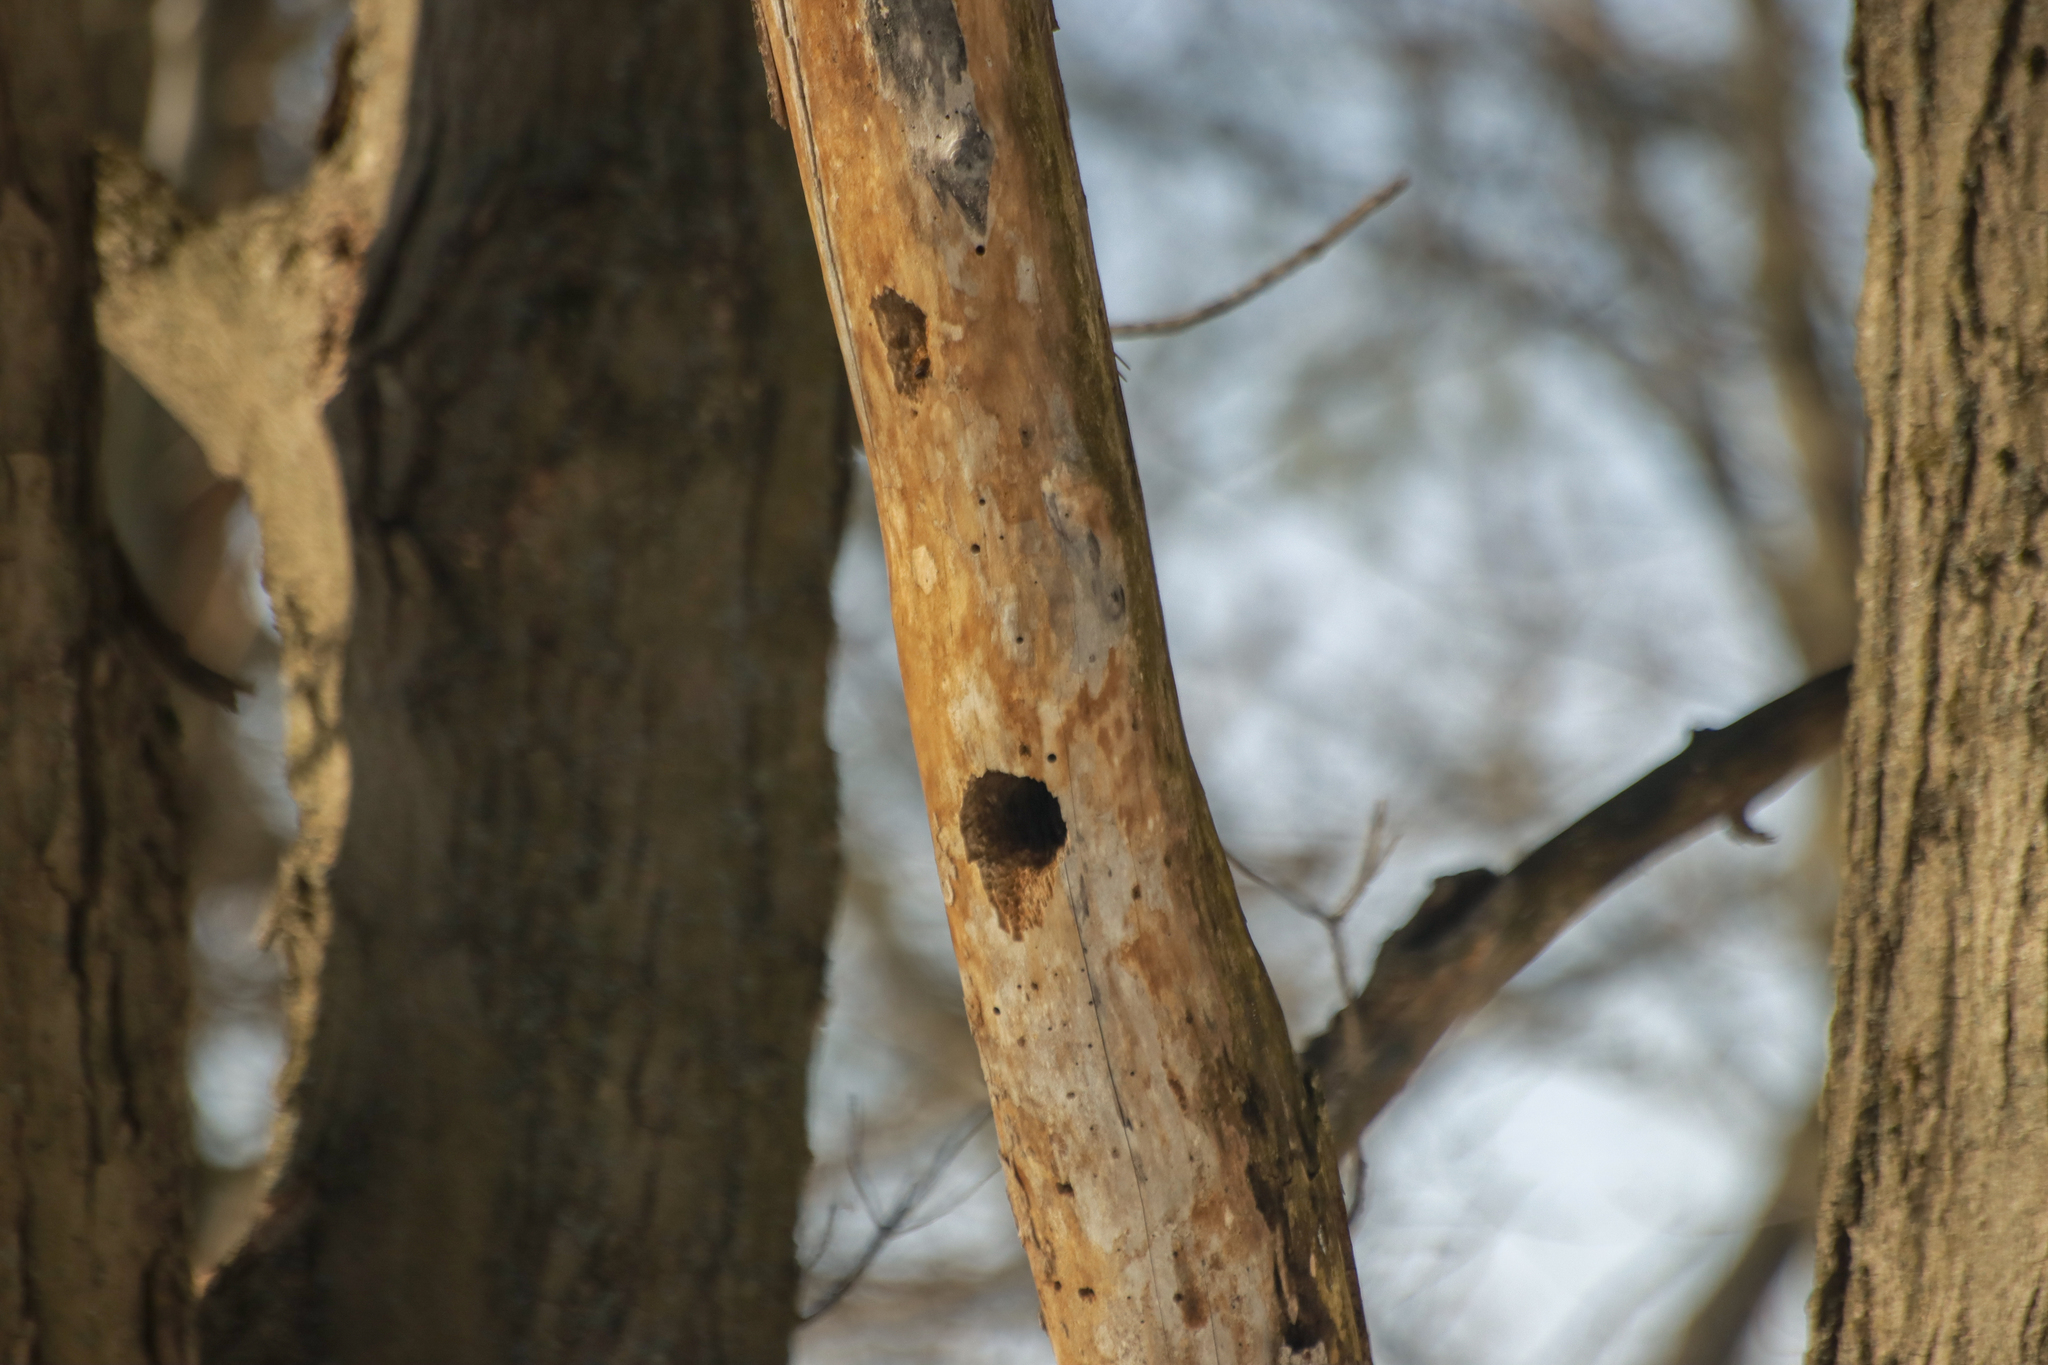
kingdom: Animalia
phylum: Chordata
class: Aves
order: Piciformes
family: Picidae
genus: Dryocopus
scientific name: Dryocopus pileatus
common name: Pileated woodpecker
